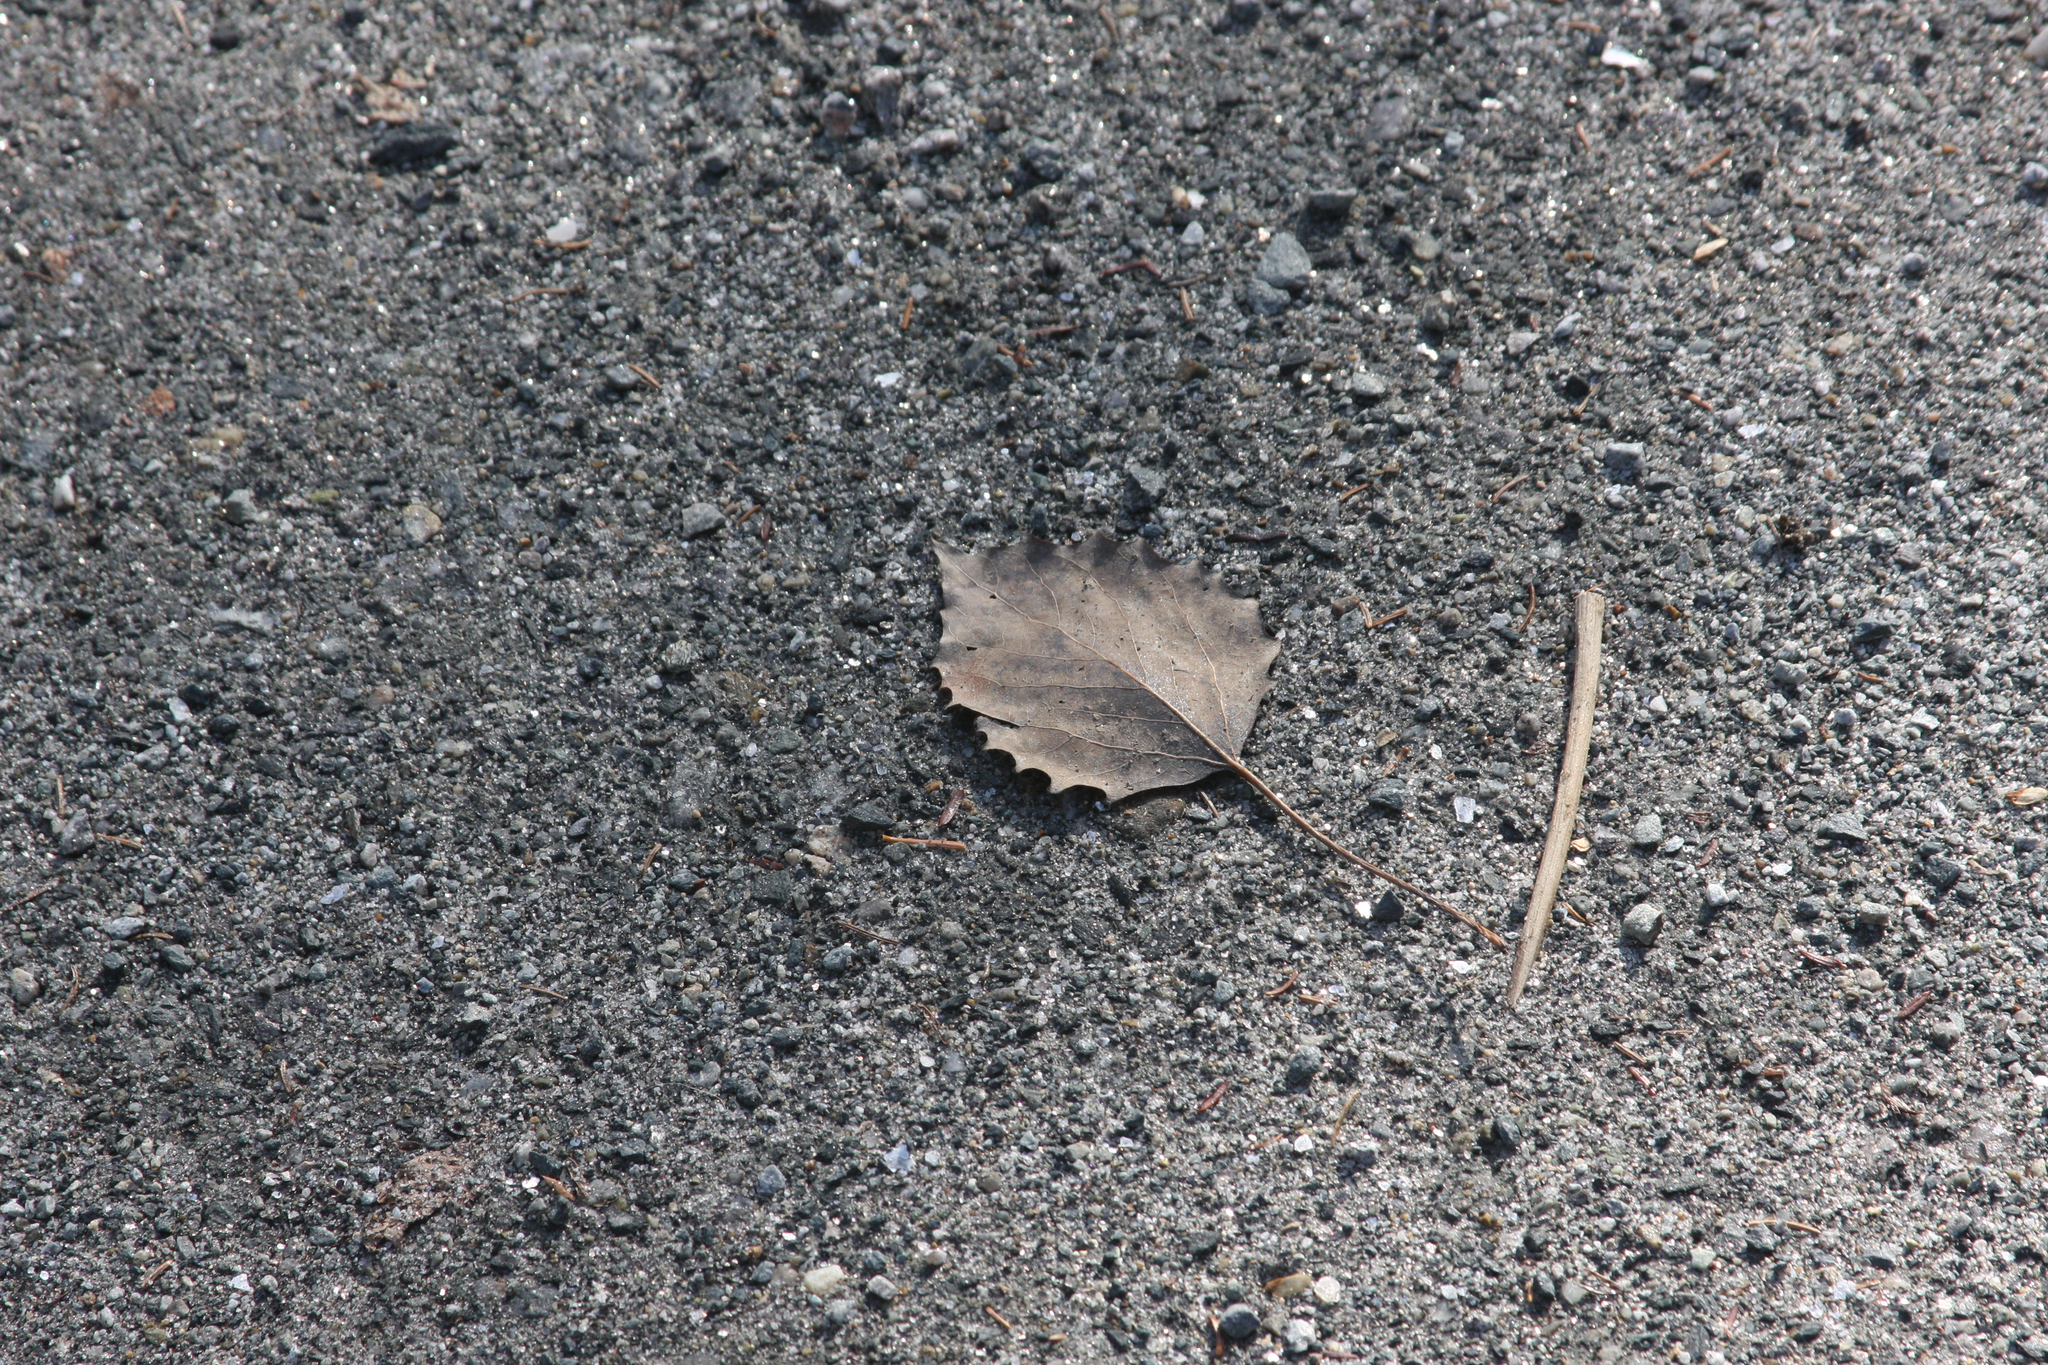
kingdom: Plantae
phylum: Tracheophyta
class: Magnoliopsida
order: Malpighiales
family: Salicaceae
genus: Populus
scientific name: Populus grandidentata
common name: Bigtooth aspen
